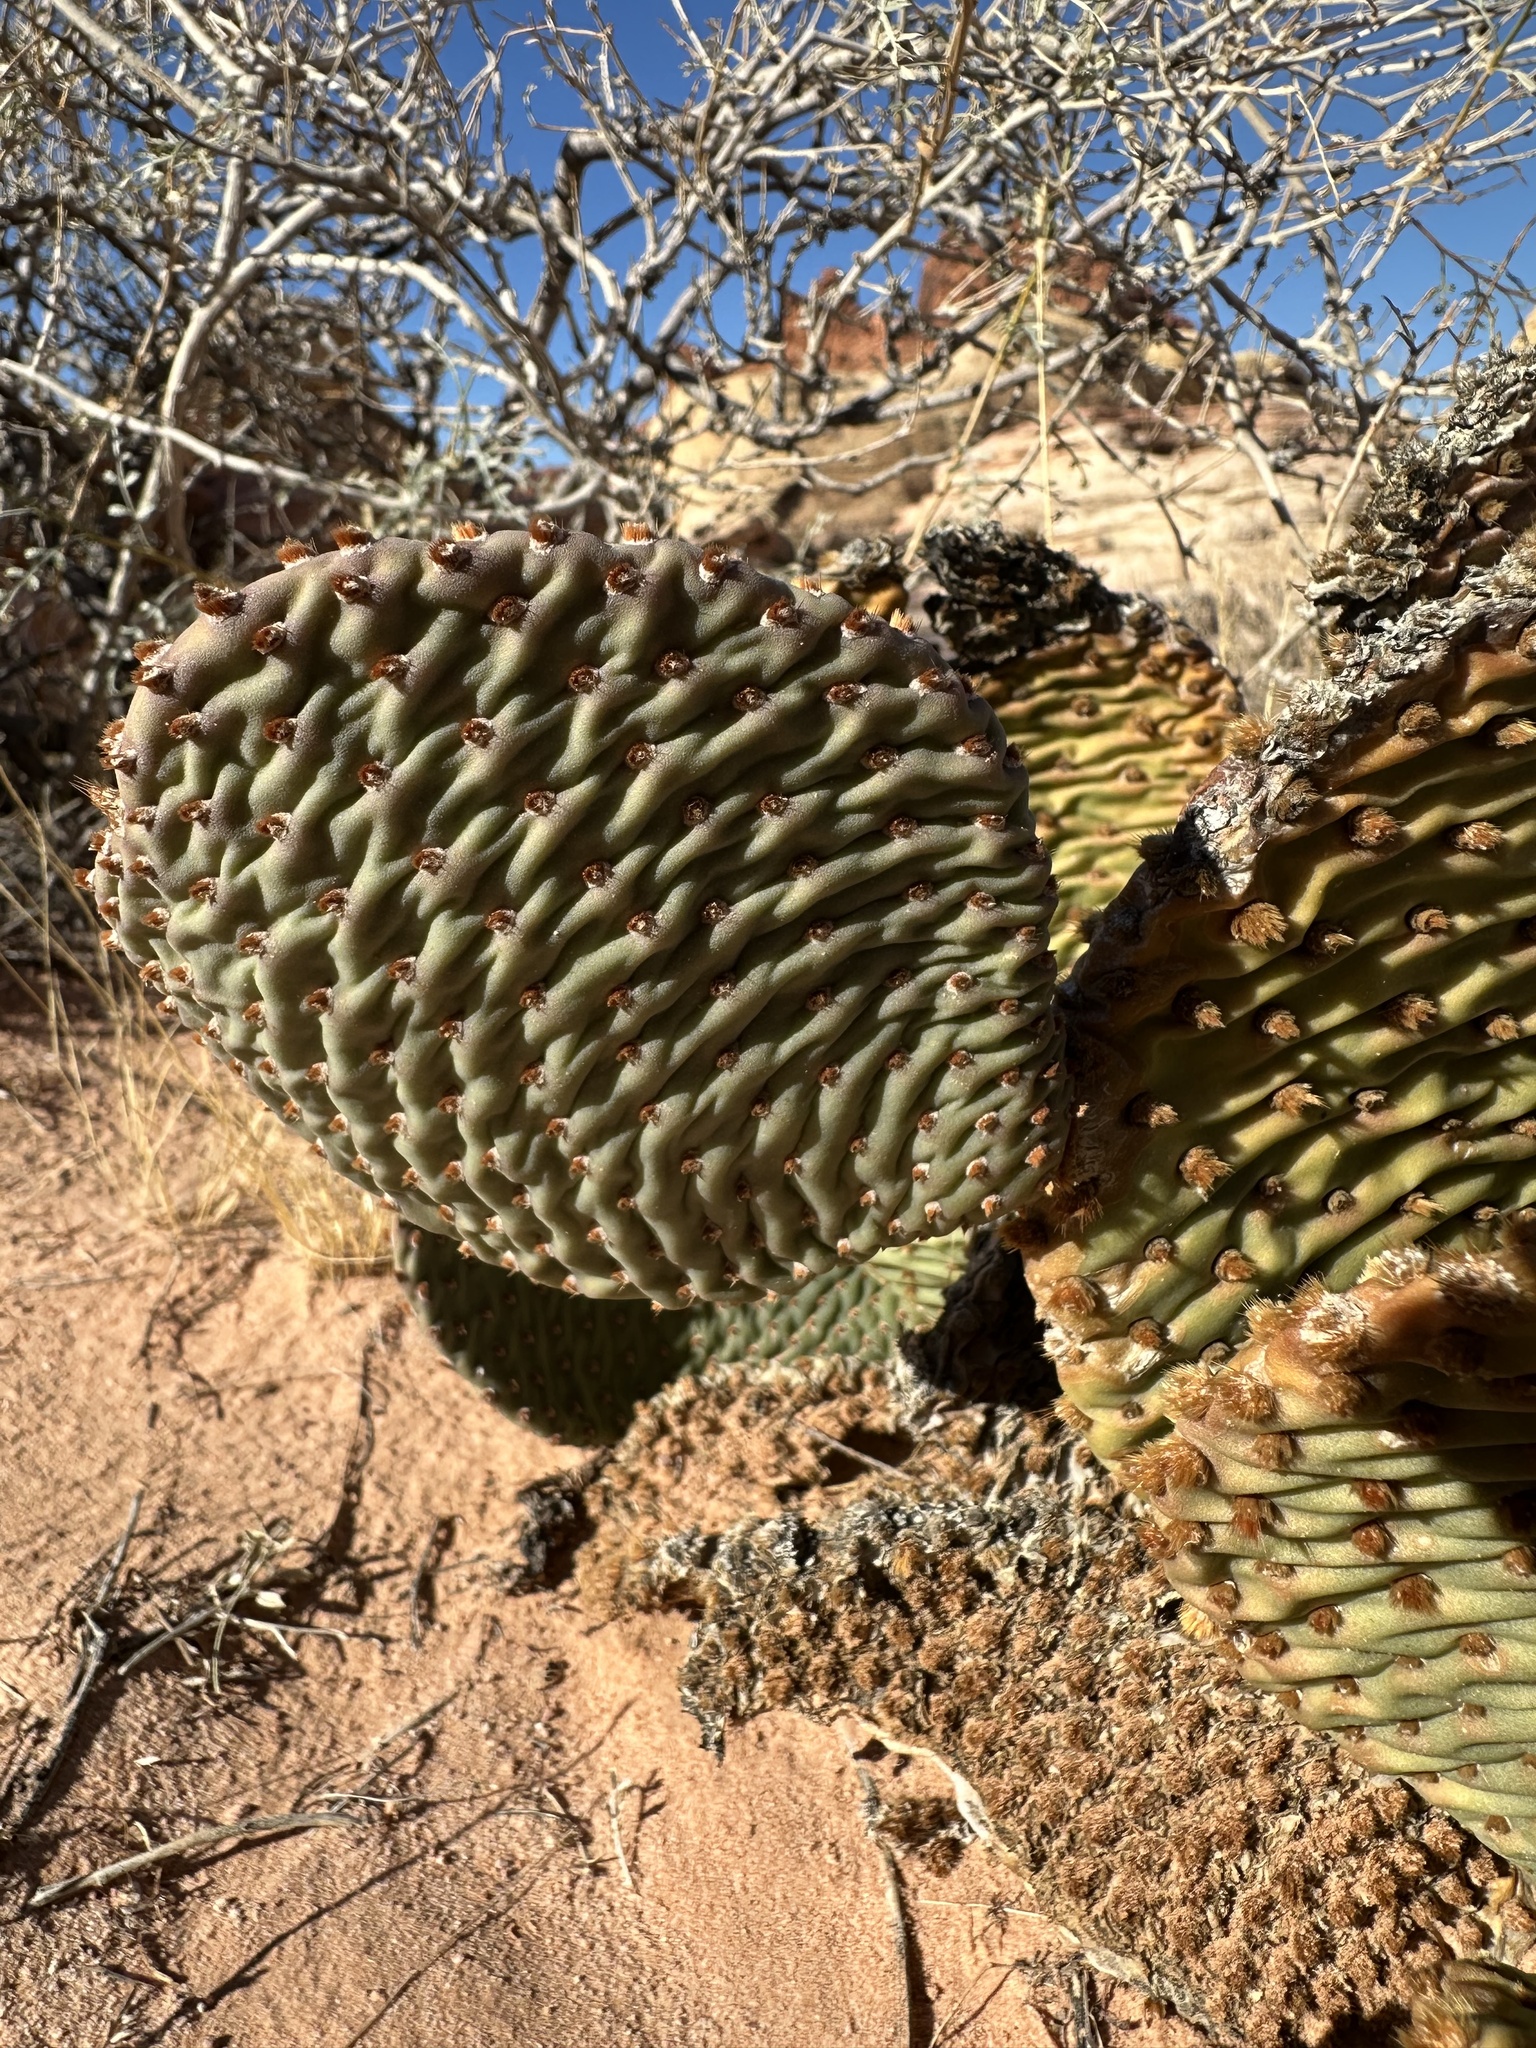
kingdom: Plantae
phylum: Tracheophyta
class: Magnoliopsida
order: Caryophyllales
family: Cactaceae
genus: Opuntia
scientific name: Opuntia basilaris
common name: Beavertail prickly-pear
